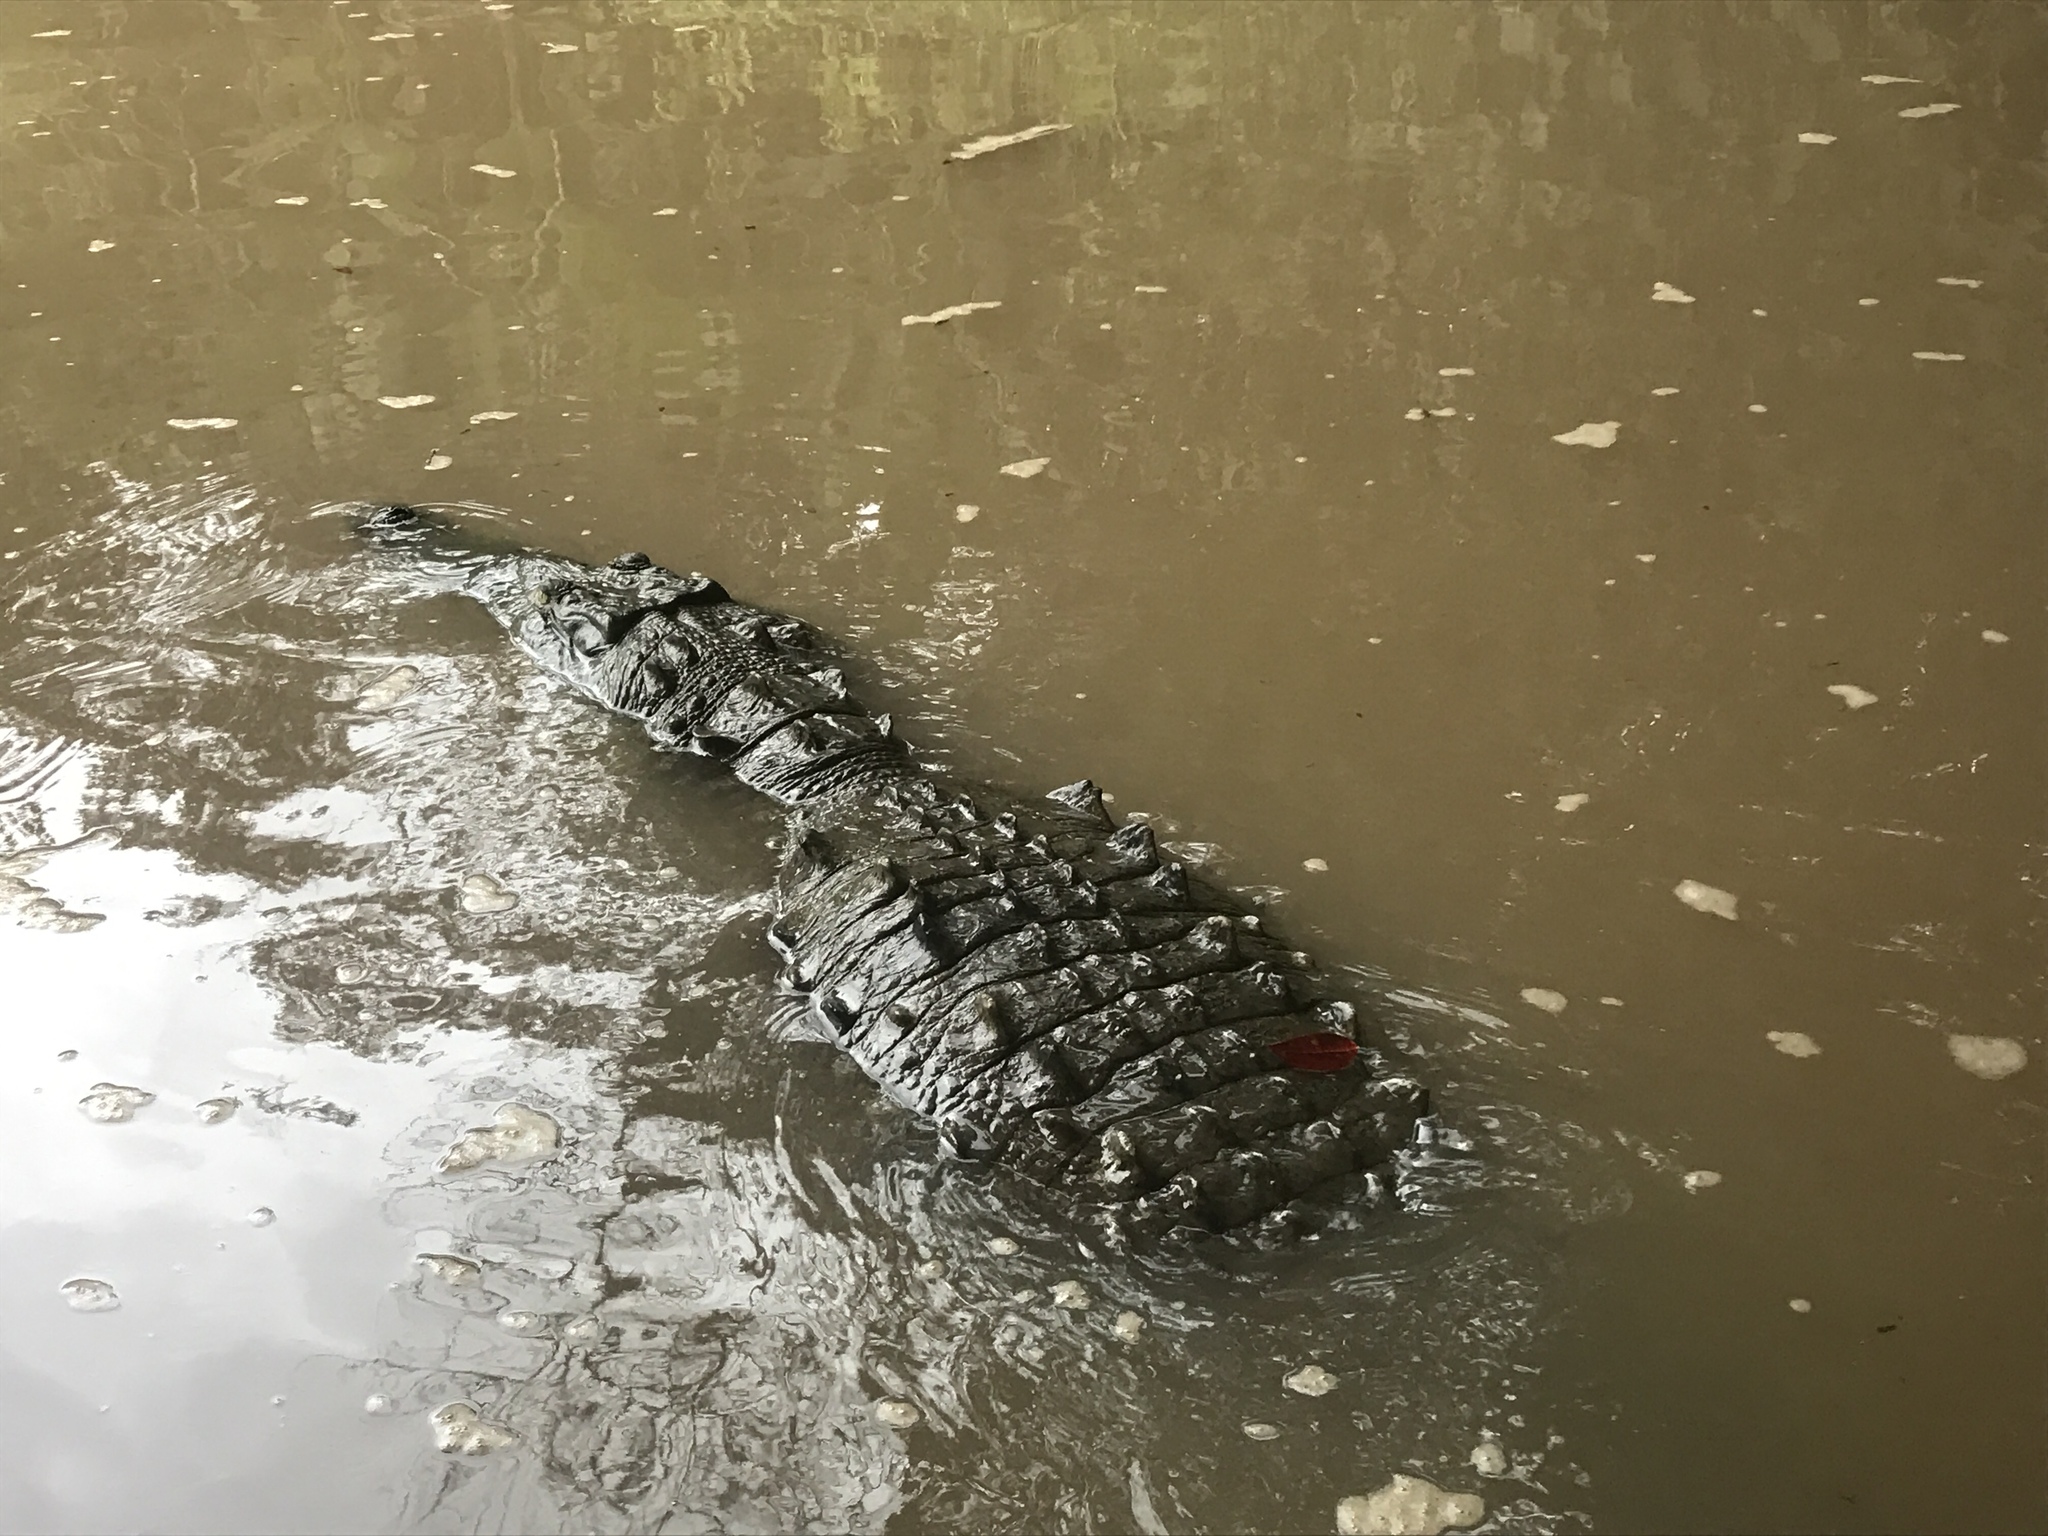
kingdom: Animalia
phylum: Chordata
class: Crocodylia
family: Crocodylidae
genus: Crocodylus
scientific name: Crocodylus acutus
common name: American crocodile
